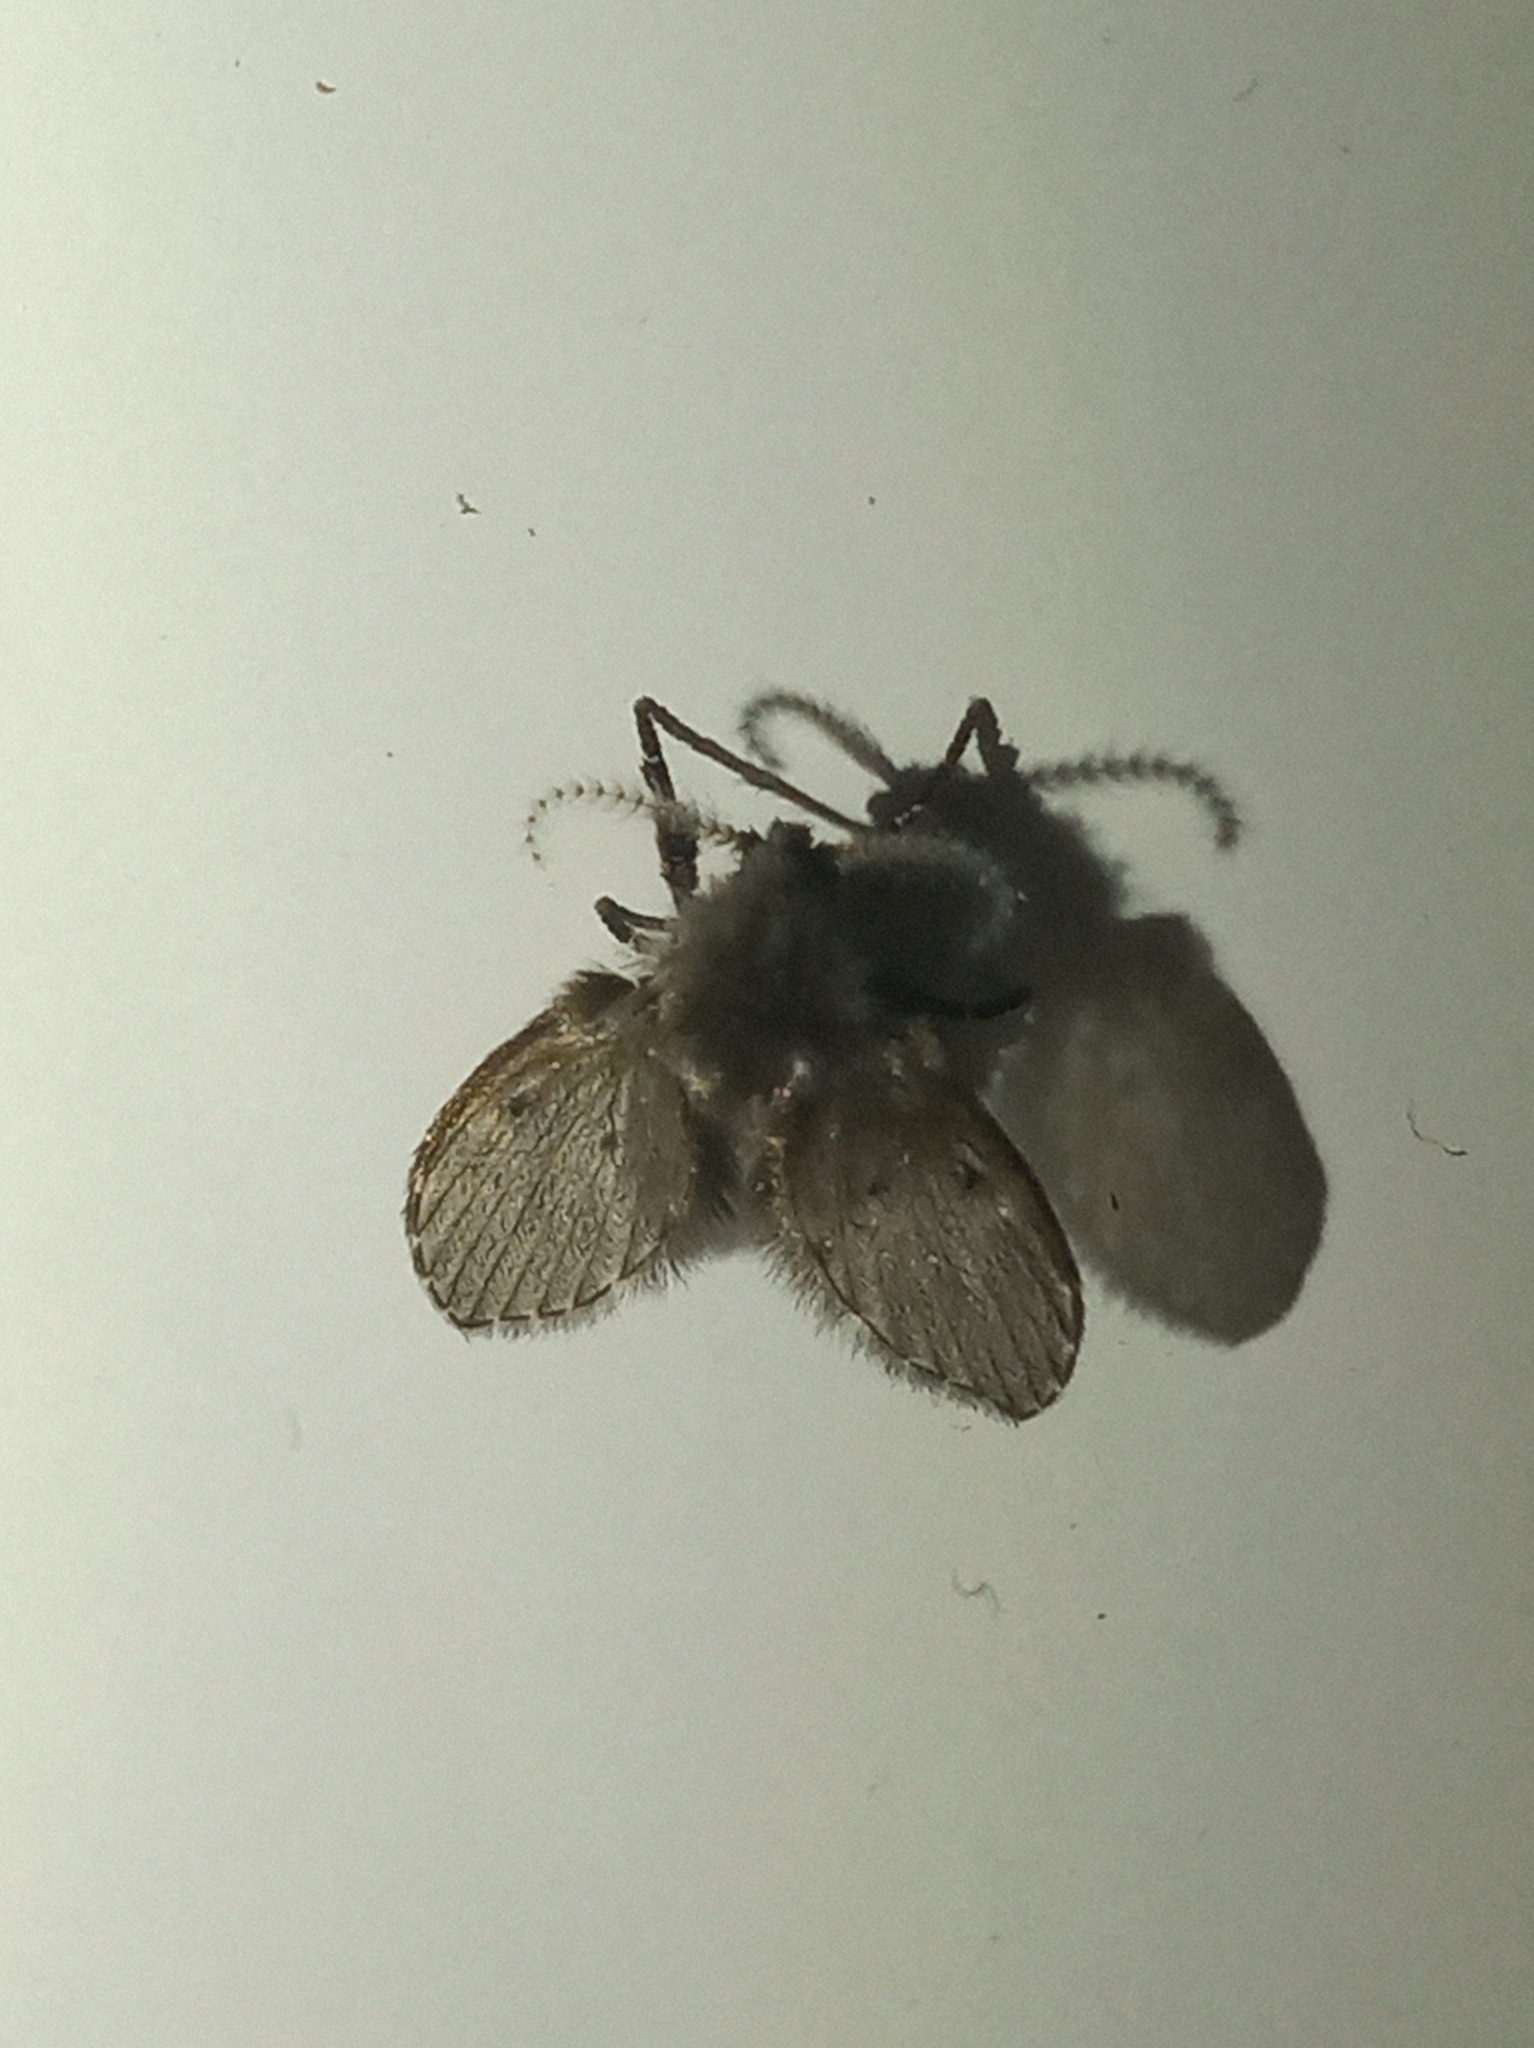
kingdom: Animalia
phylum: Arthropoda
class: Insecta
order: Diptera
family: Psychodidae
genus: Clogmia
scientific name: Clogmia albipunctatus
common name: White-spotted moth fly
